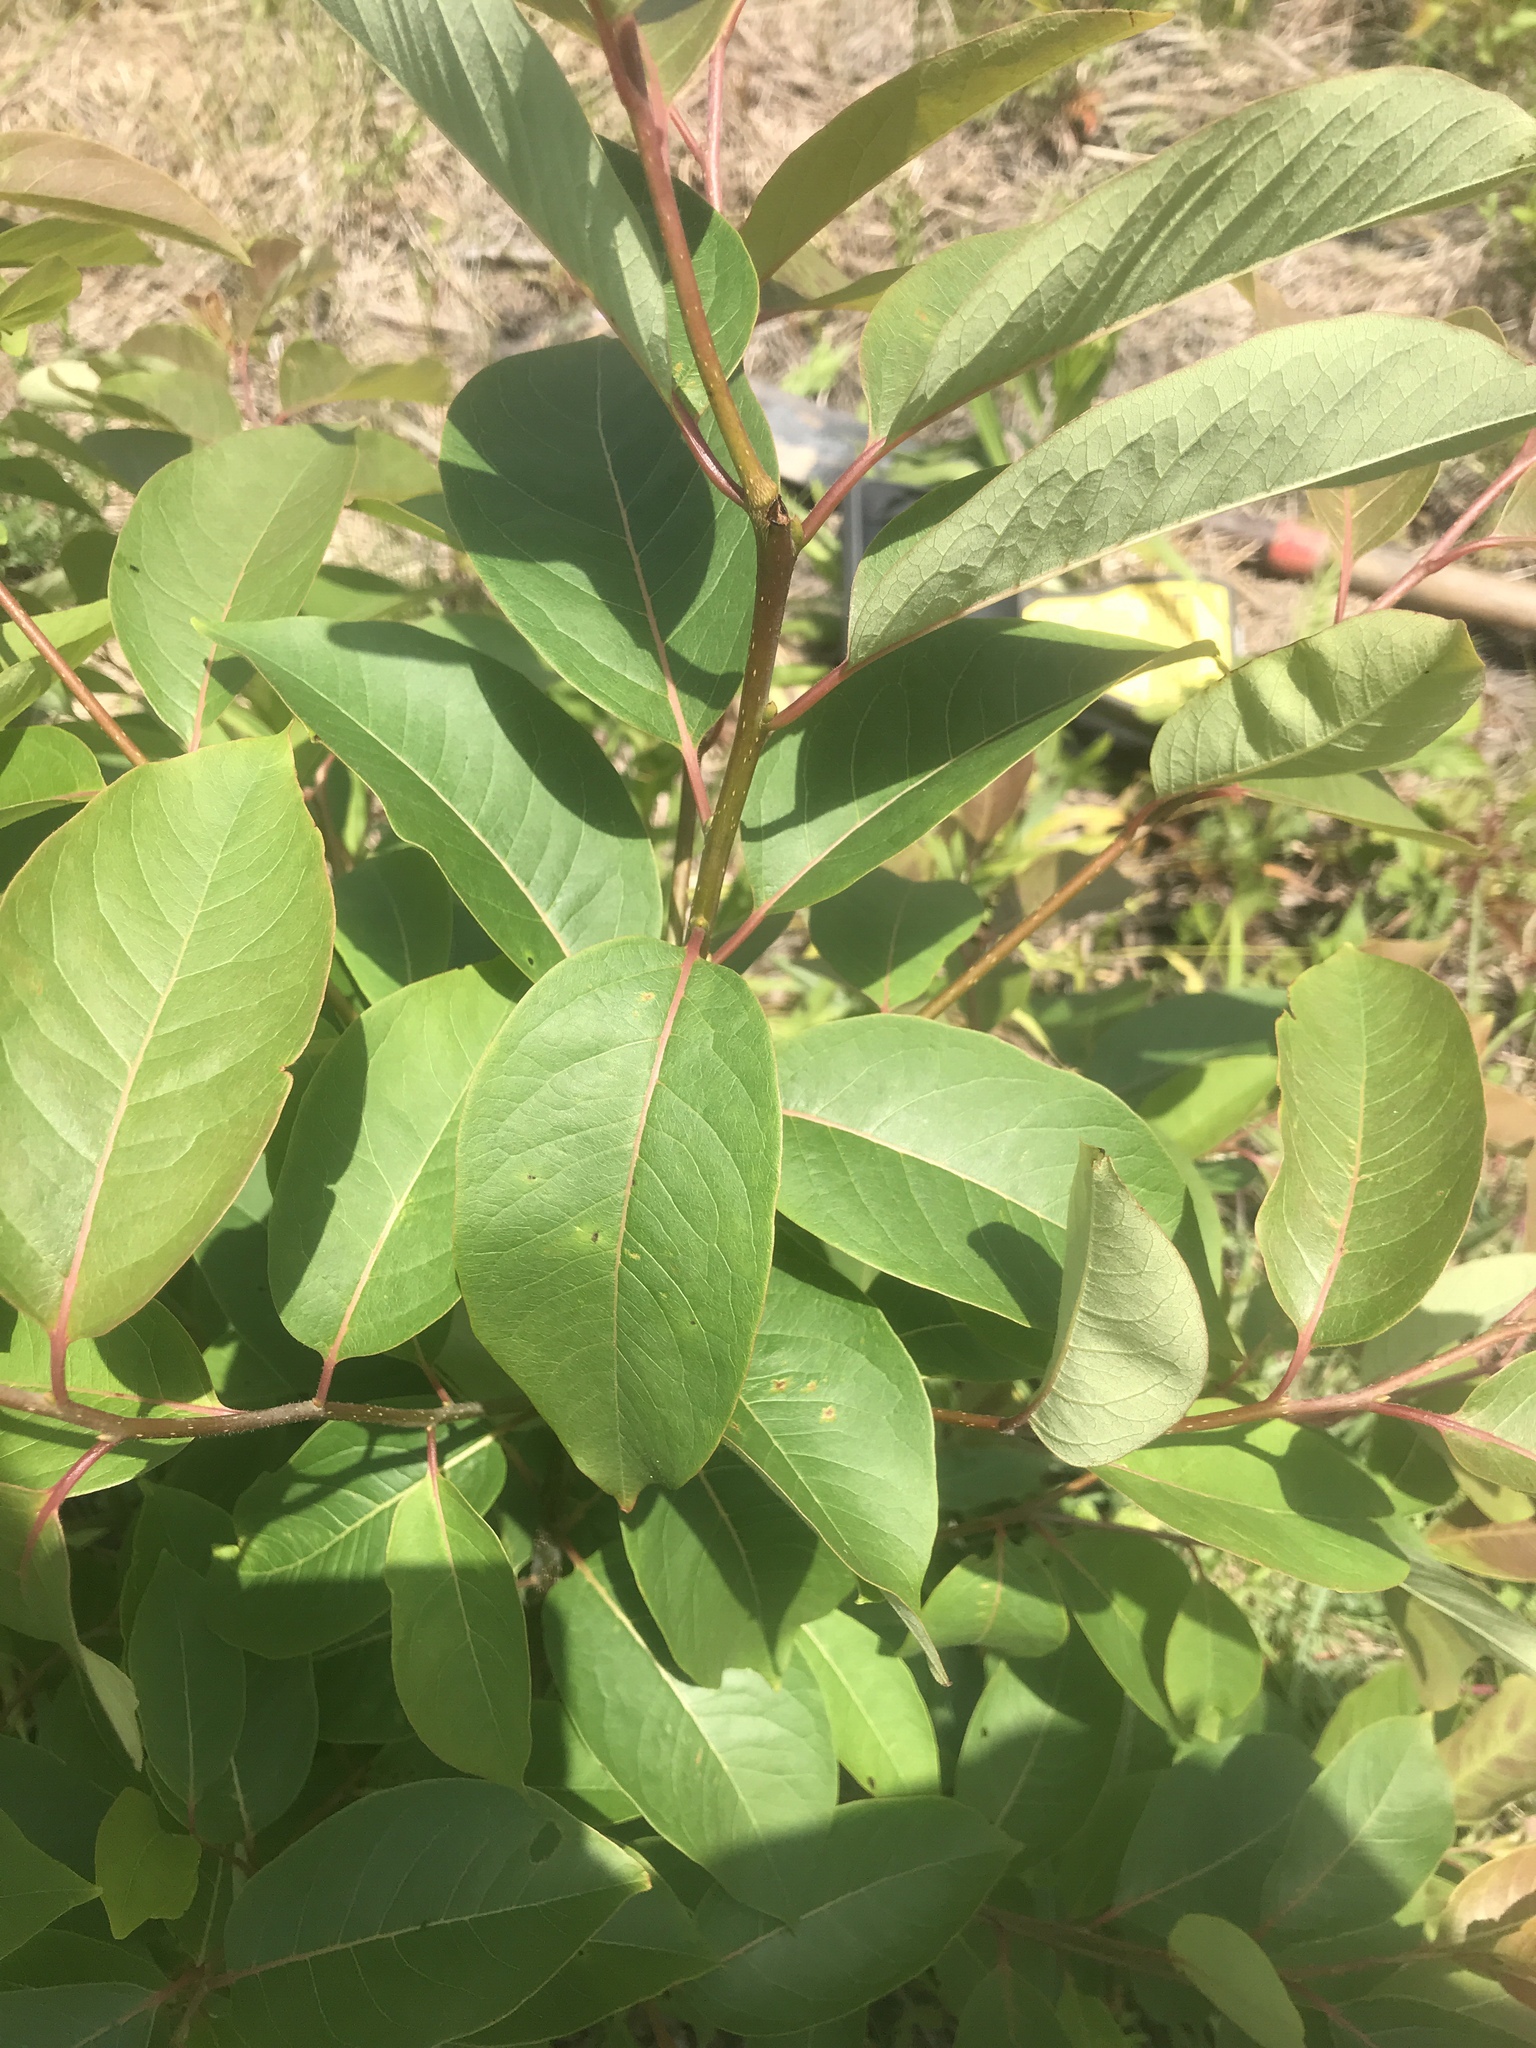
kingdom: Plantae
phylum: Tracheophyta
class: Magnoliopsida
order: Ericales
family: Ebenaceae
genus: Diospyros
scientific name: Diospyros virginiana
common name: Persimmon
